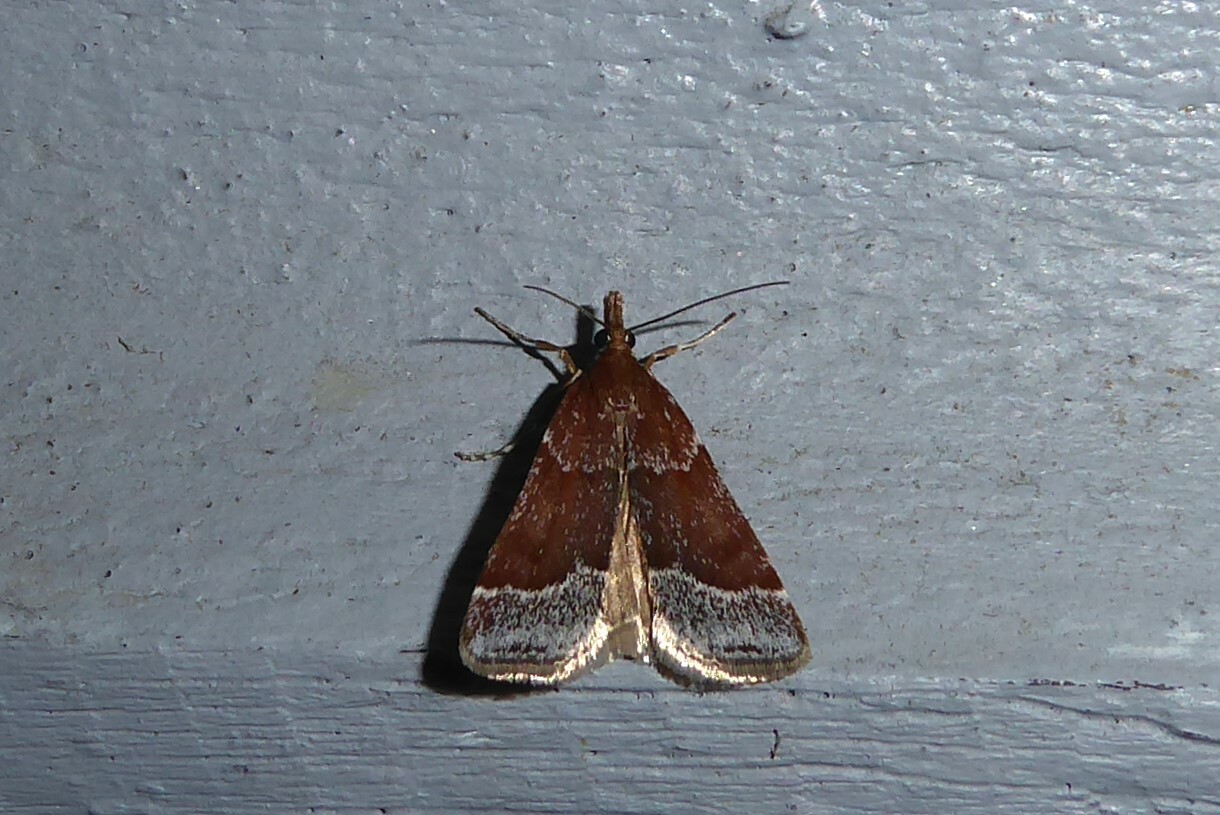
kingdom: Animalia
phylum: Arthropoda
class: Insecta
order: Lepidoptera
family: Crambidae
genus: Eudonia
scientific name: Eudonia feredayi
